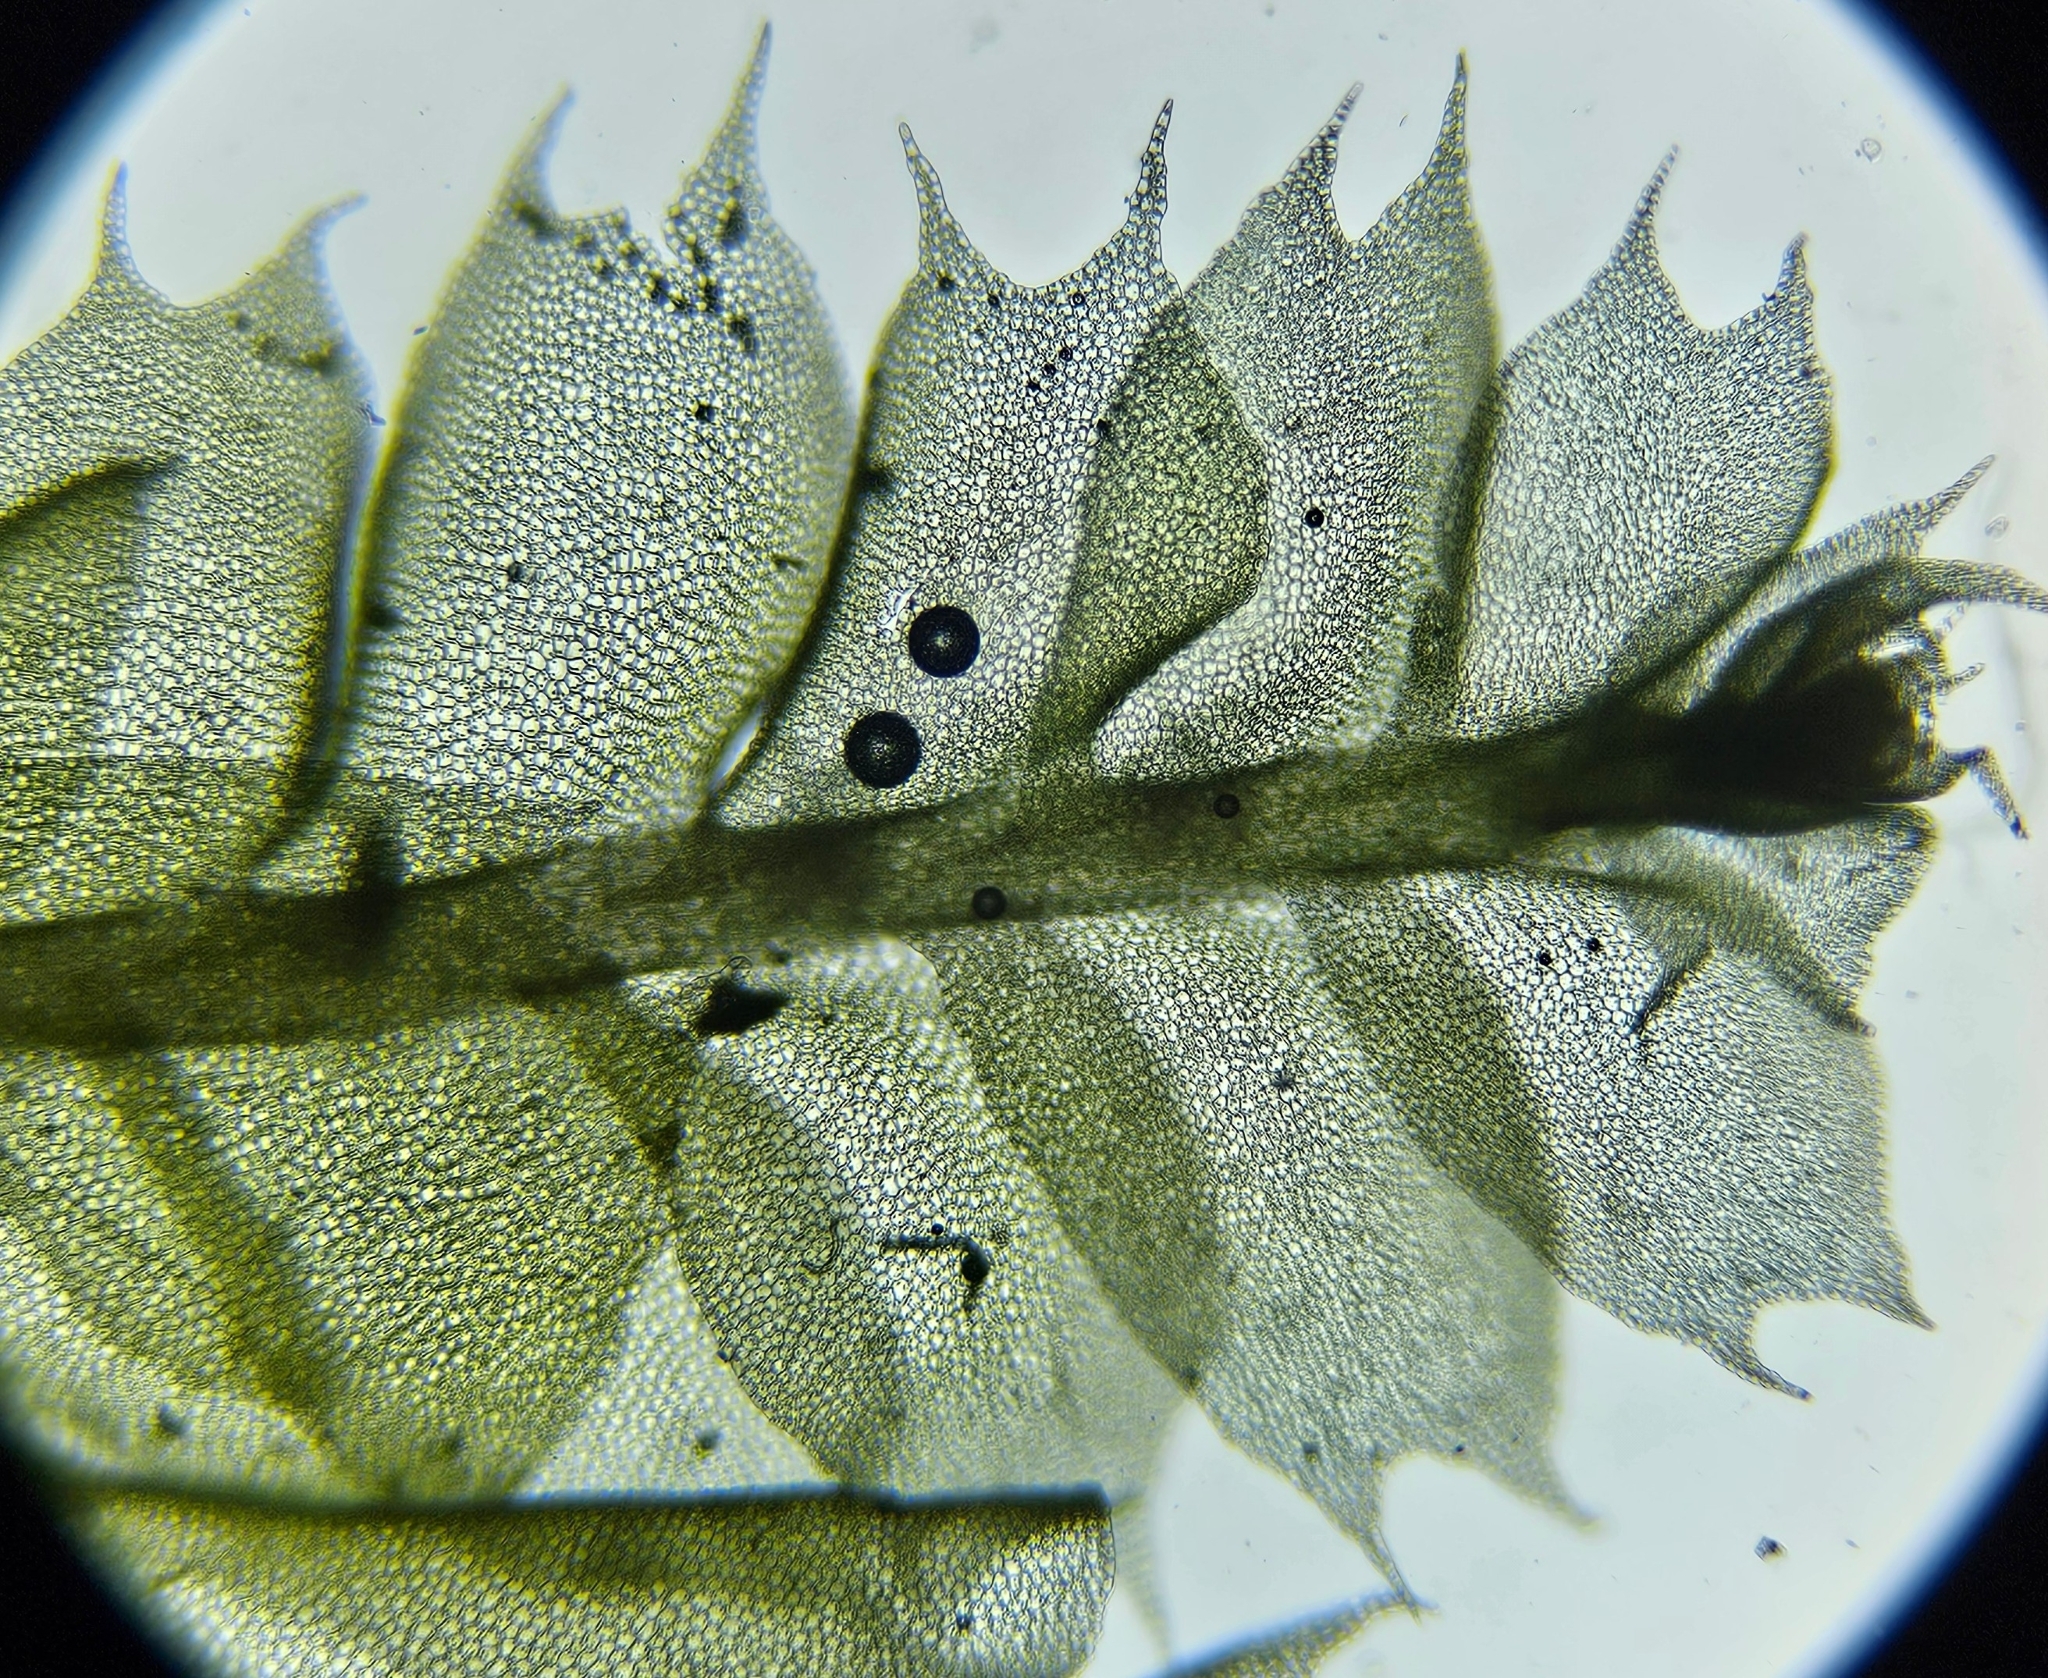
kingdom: Plantae
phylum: Marchantiophyta
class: Jungermanniopsida
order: Jungermanniales
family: Lophocoleaceae
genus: Lophocolea
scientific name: Lophocolea bidentata
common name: Bifid crestwort
